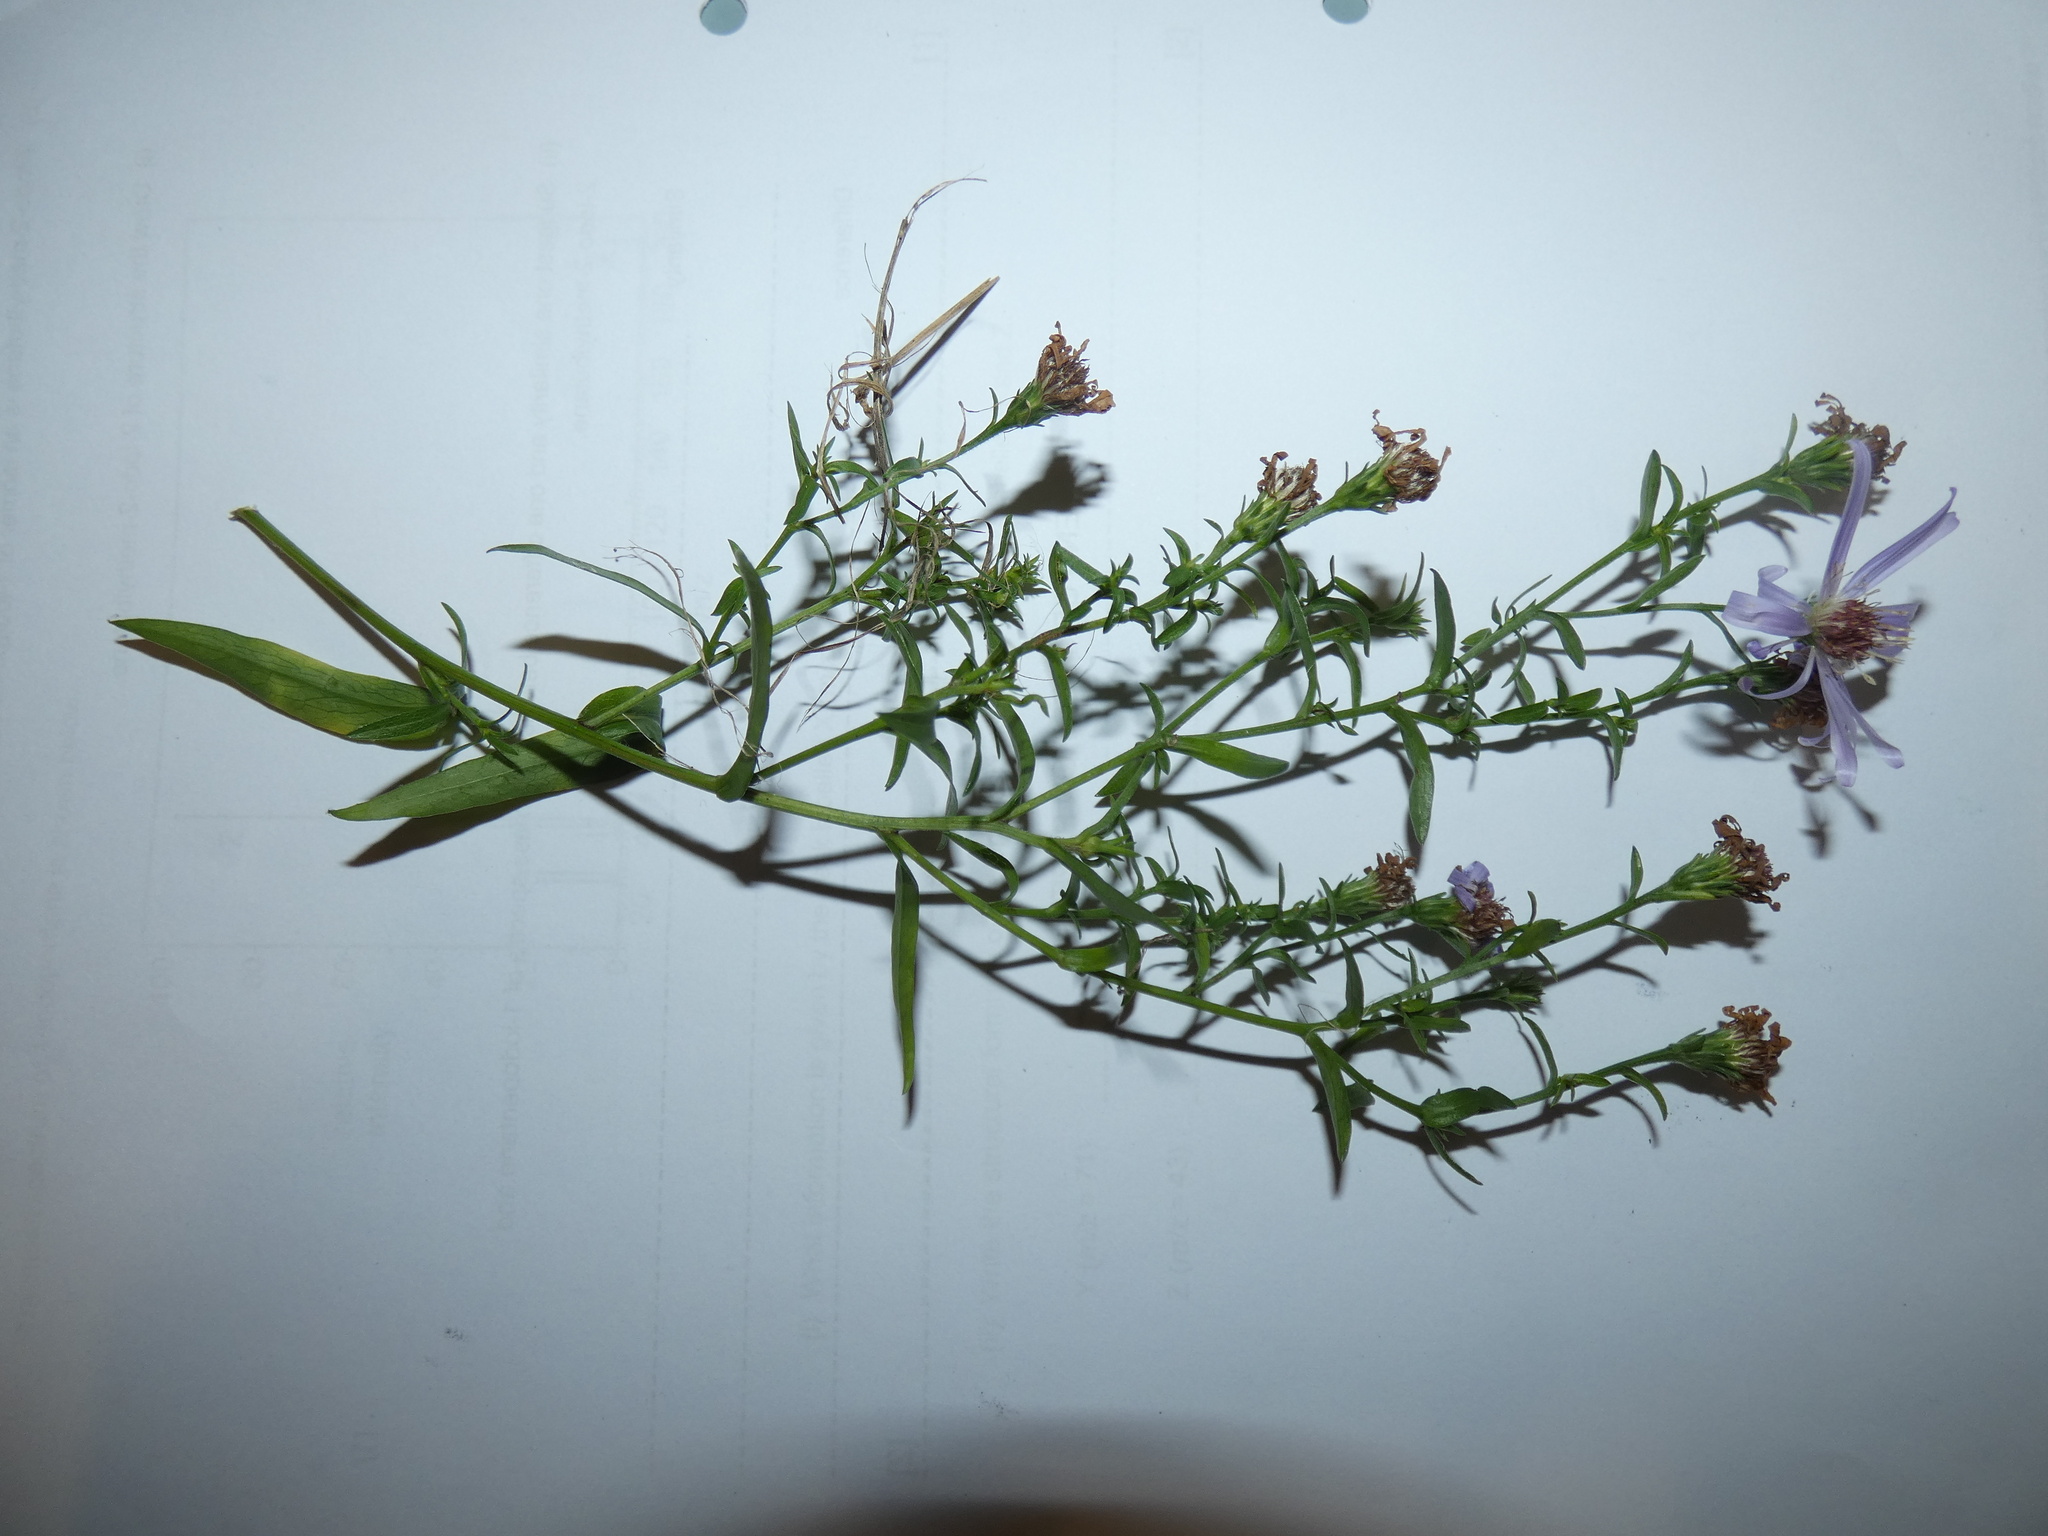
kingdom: Plantae
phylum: Tracheophyta
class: Magnoliopsida
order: Asterales
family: Asteraceae
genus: Symphyotrichum
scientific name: Symphyotrichum novi-belgii
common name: Michaelmas daisy
